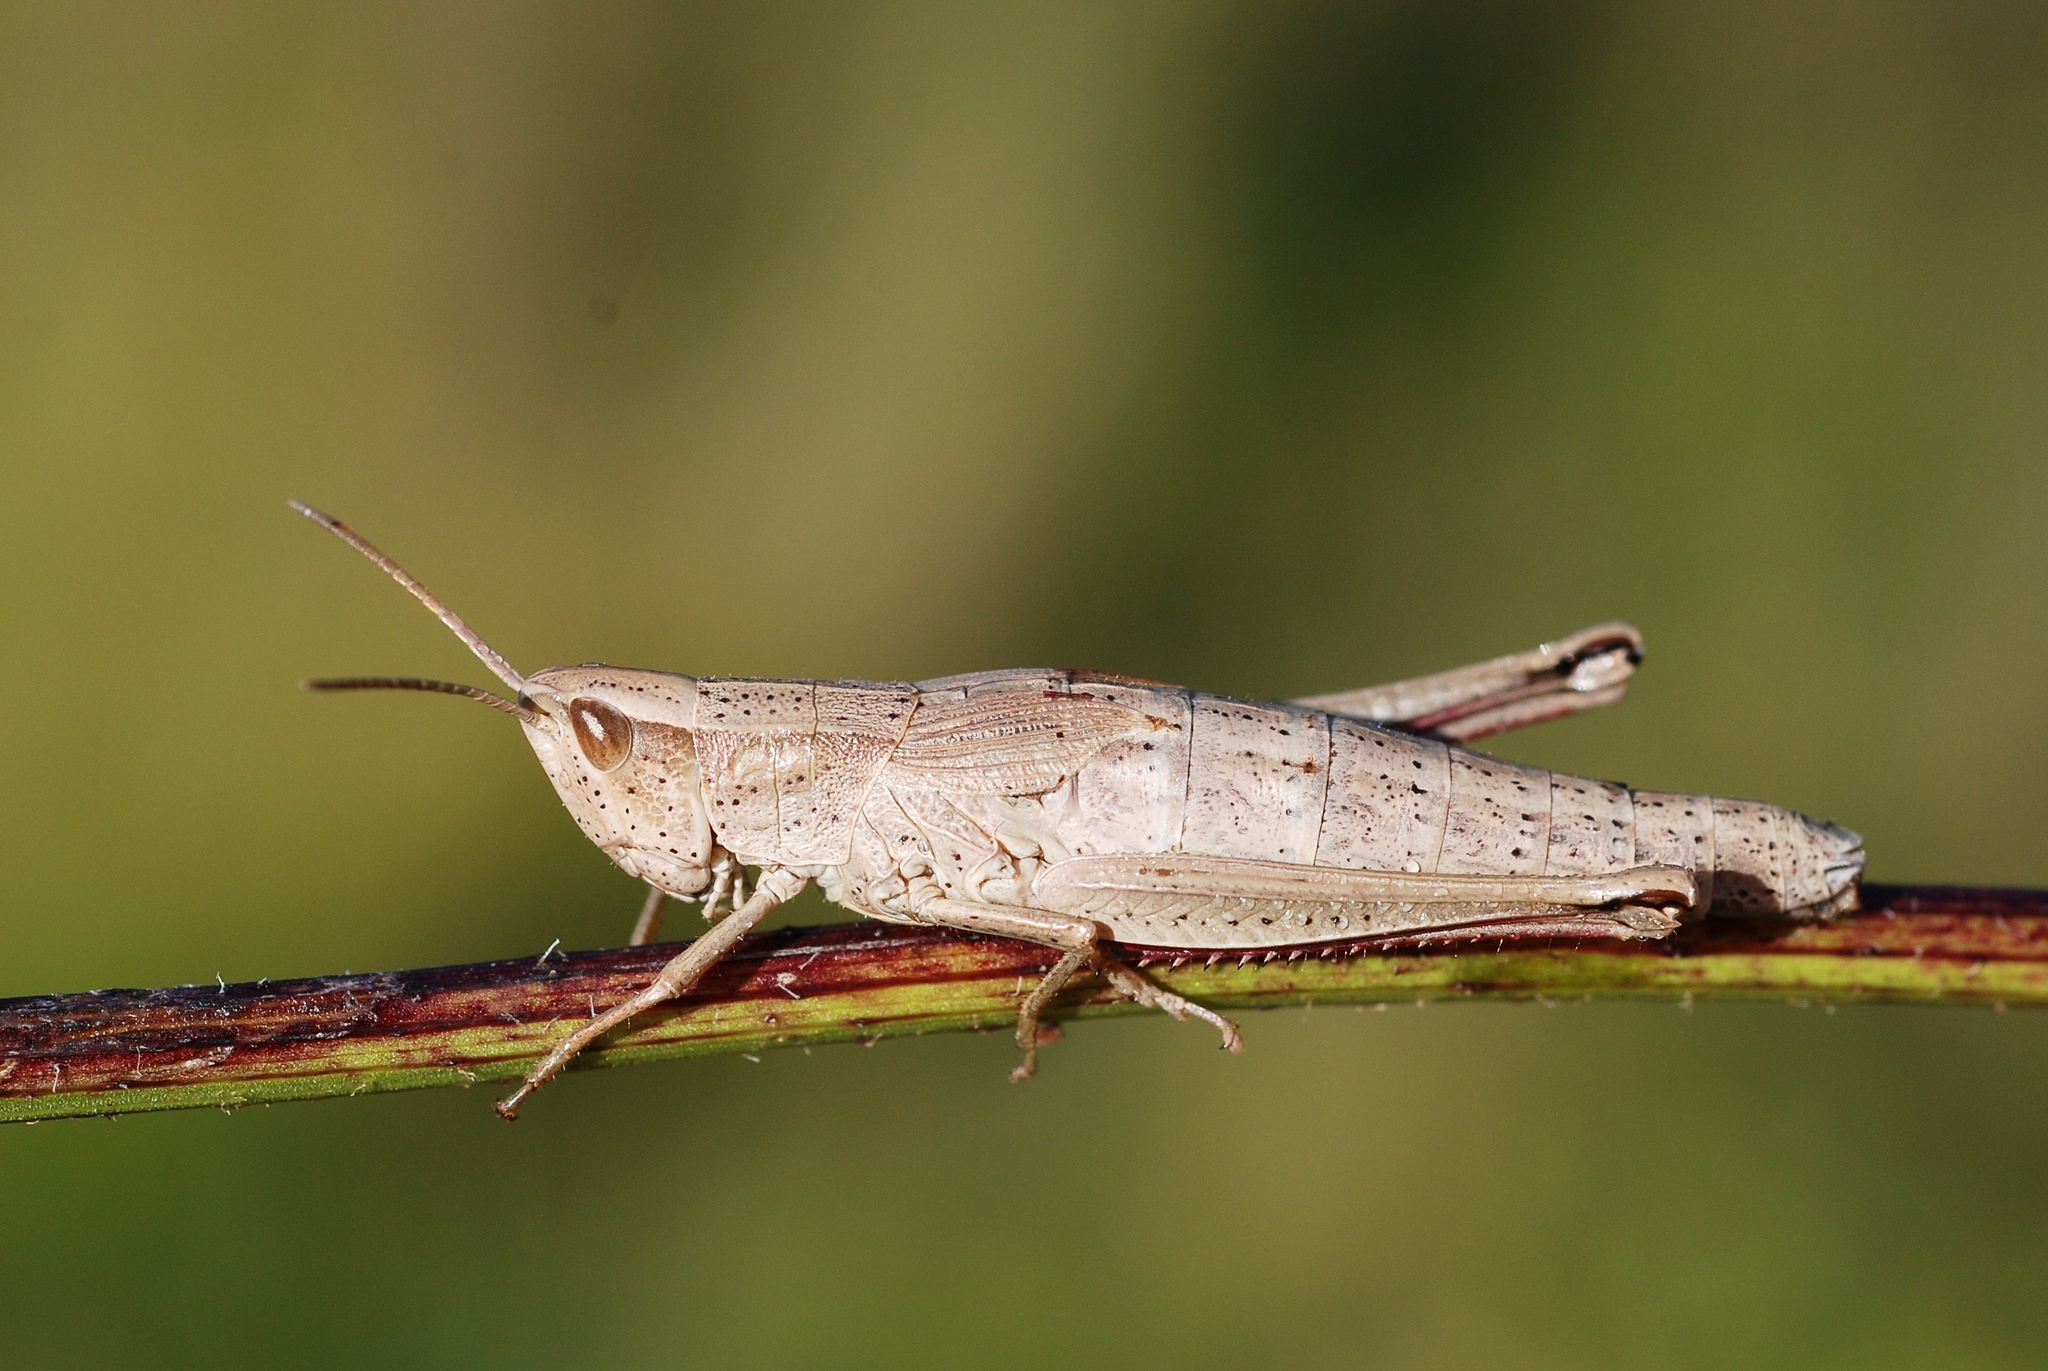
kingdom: Animalia
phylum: Arthropoda
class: Insecta
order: Orthoptera
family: Acrididae
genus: Chrysochraon
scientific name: Chrysochraon dispar
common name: Large gold grasshopper
